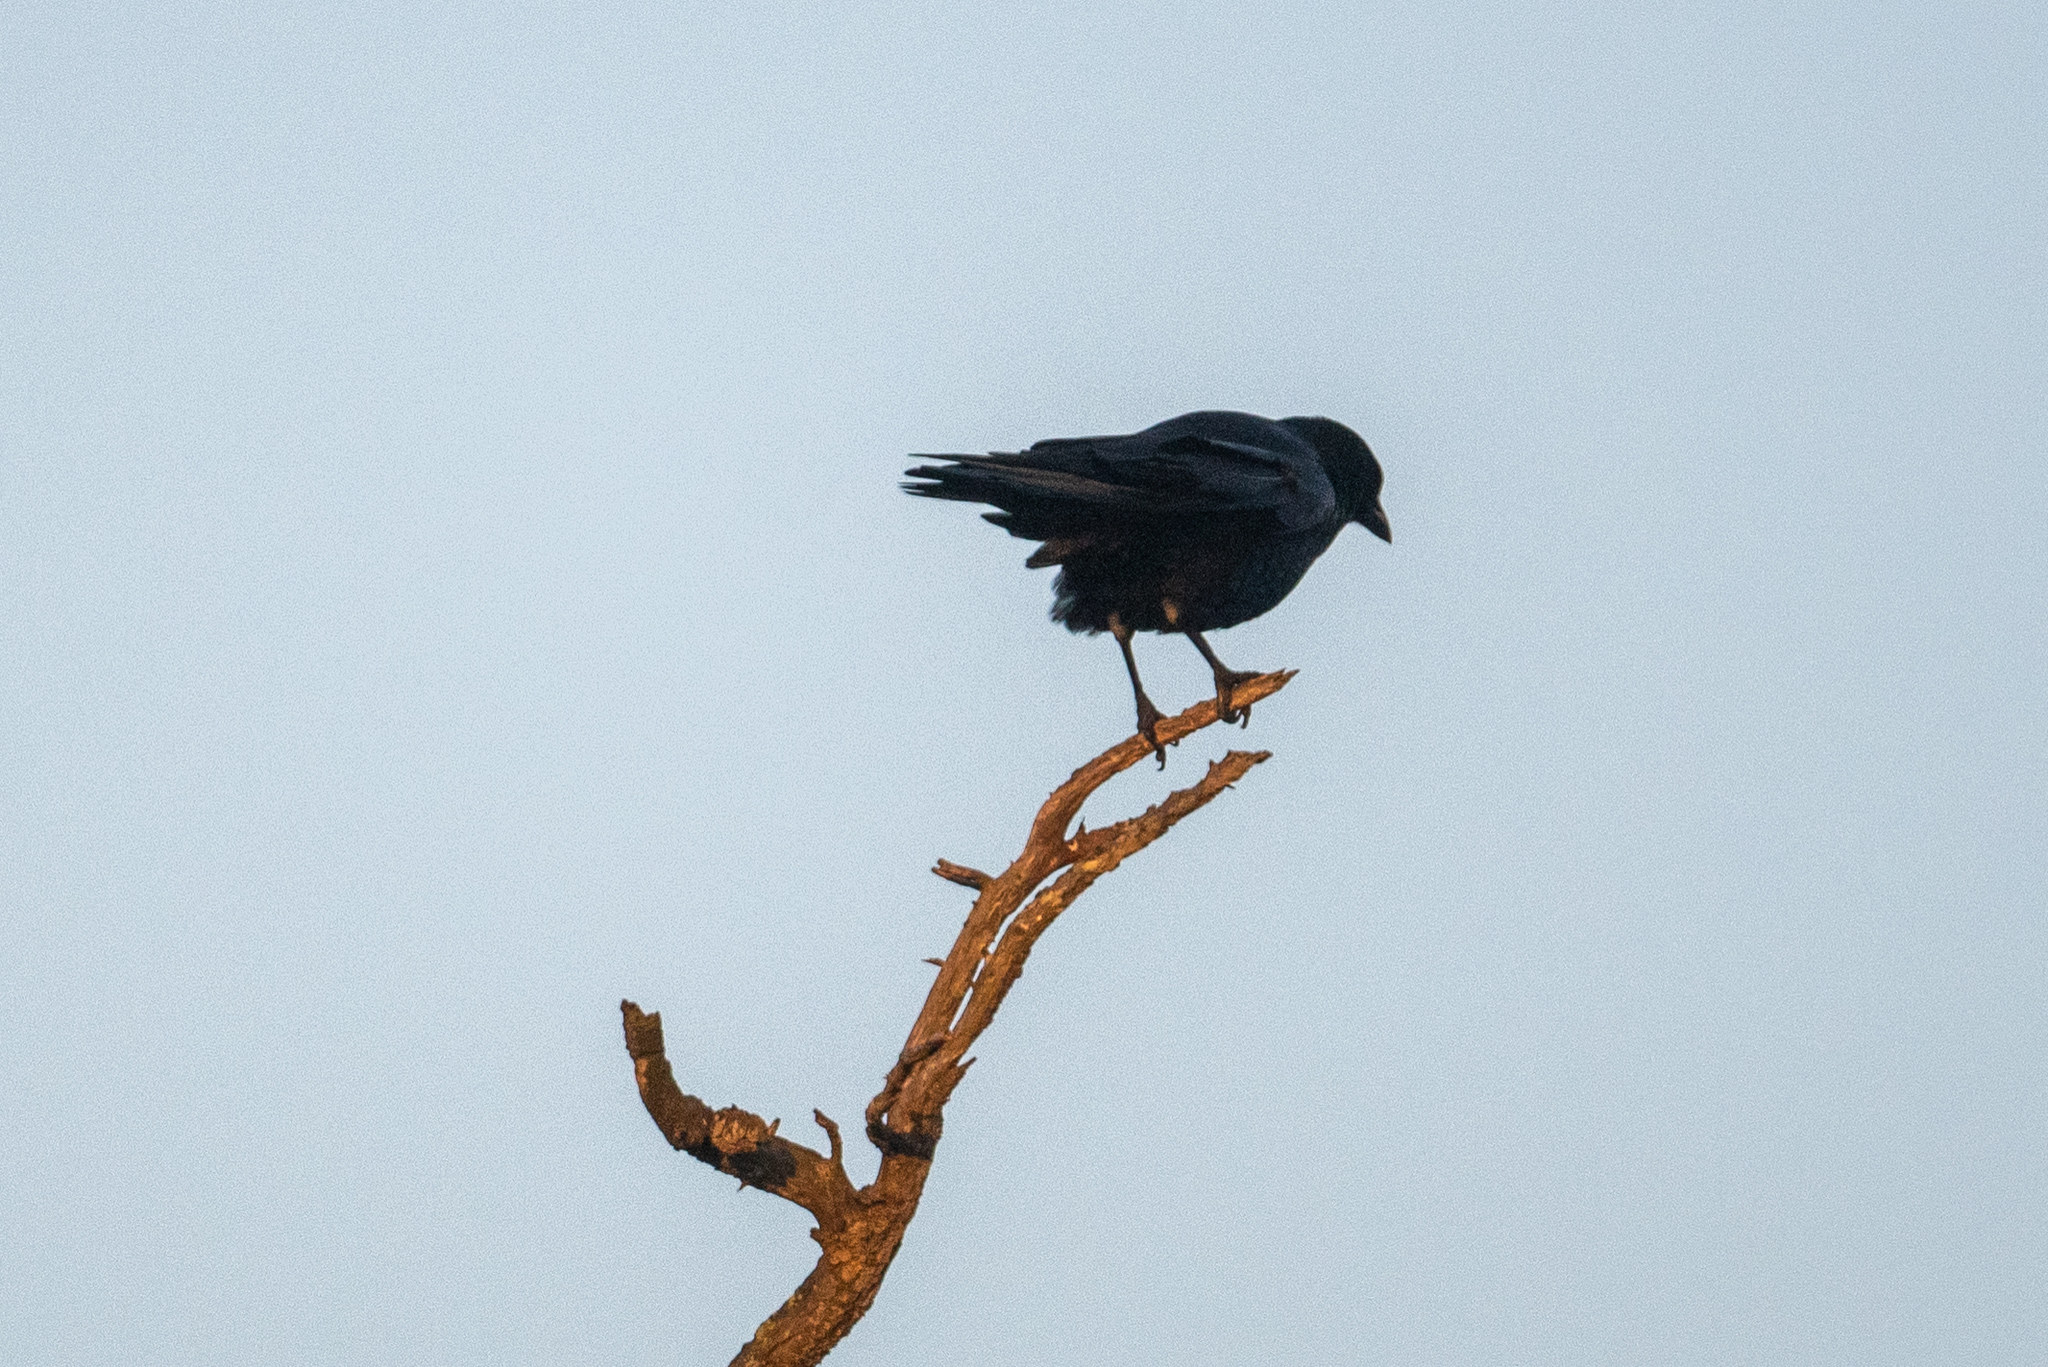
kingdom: Animalia
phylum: Chordata
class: Aves
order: Passeriformes
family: Corvidae
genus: Corvus
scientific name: Corvus brachyrhynchos
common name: American crow
